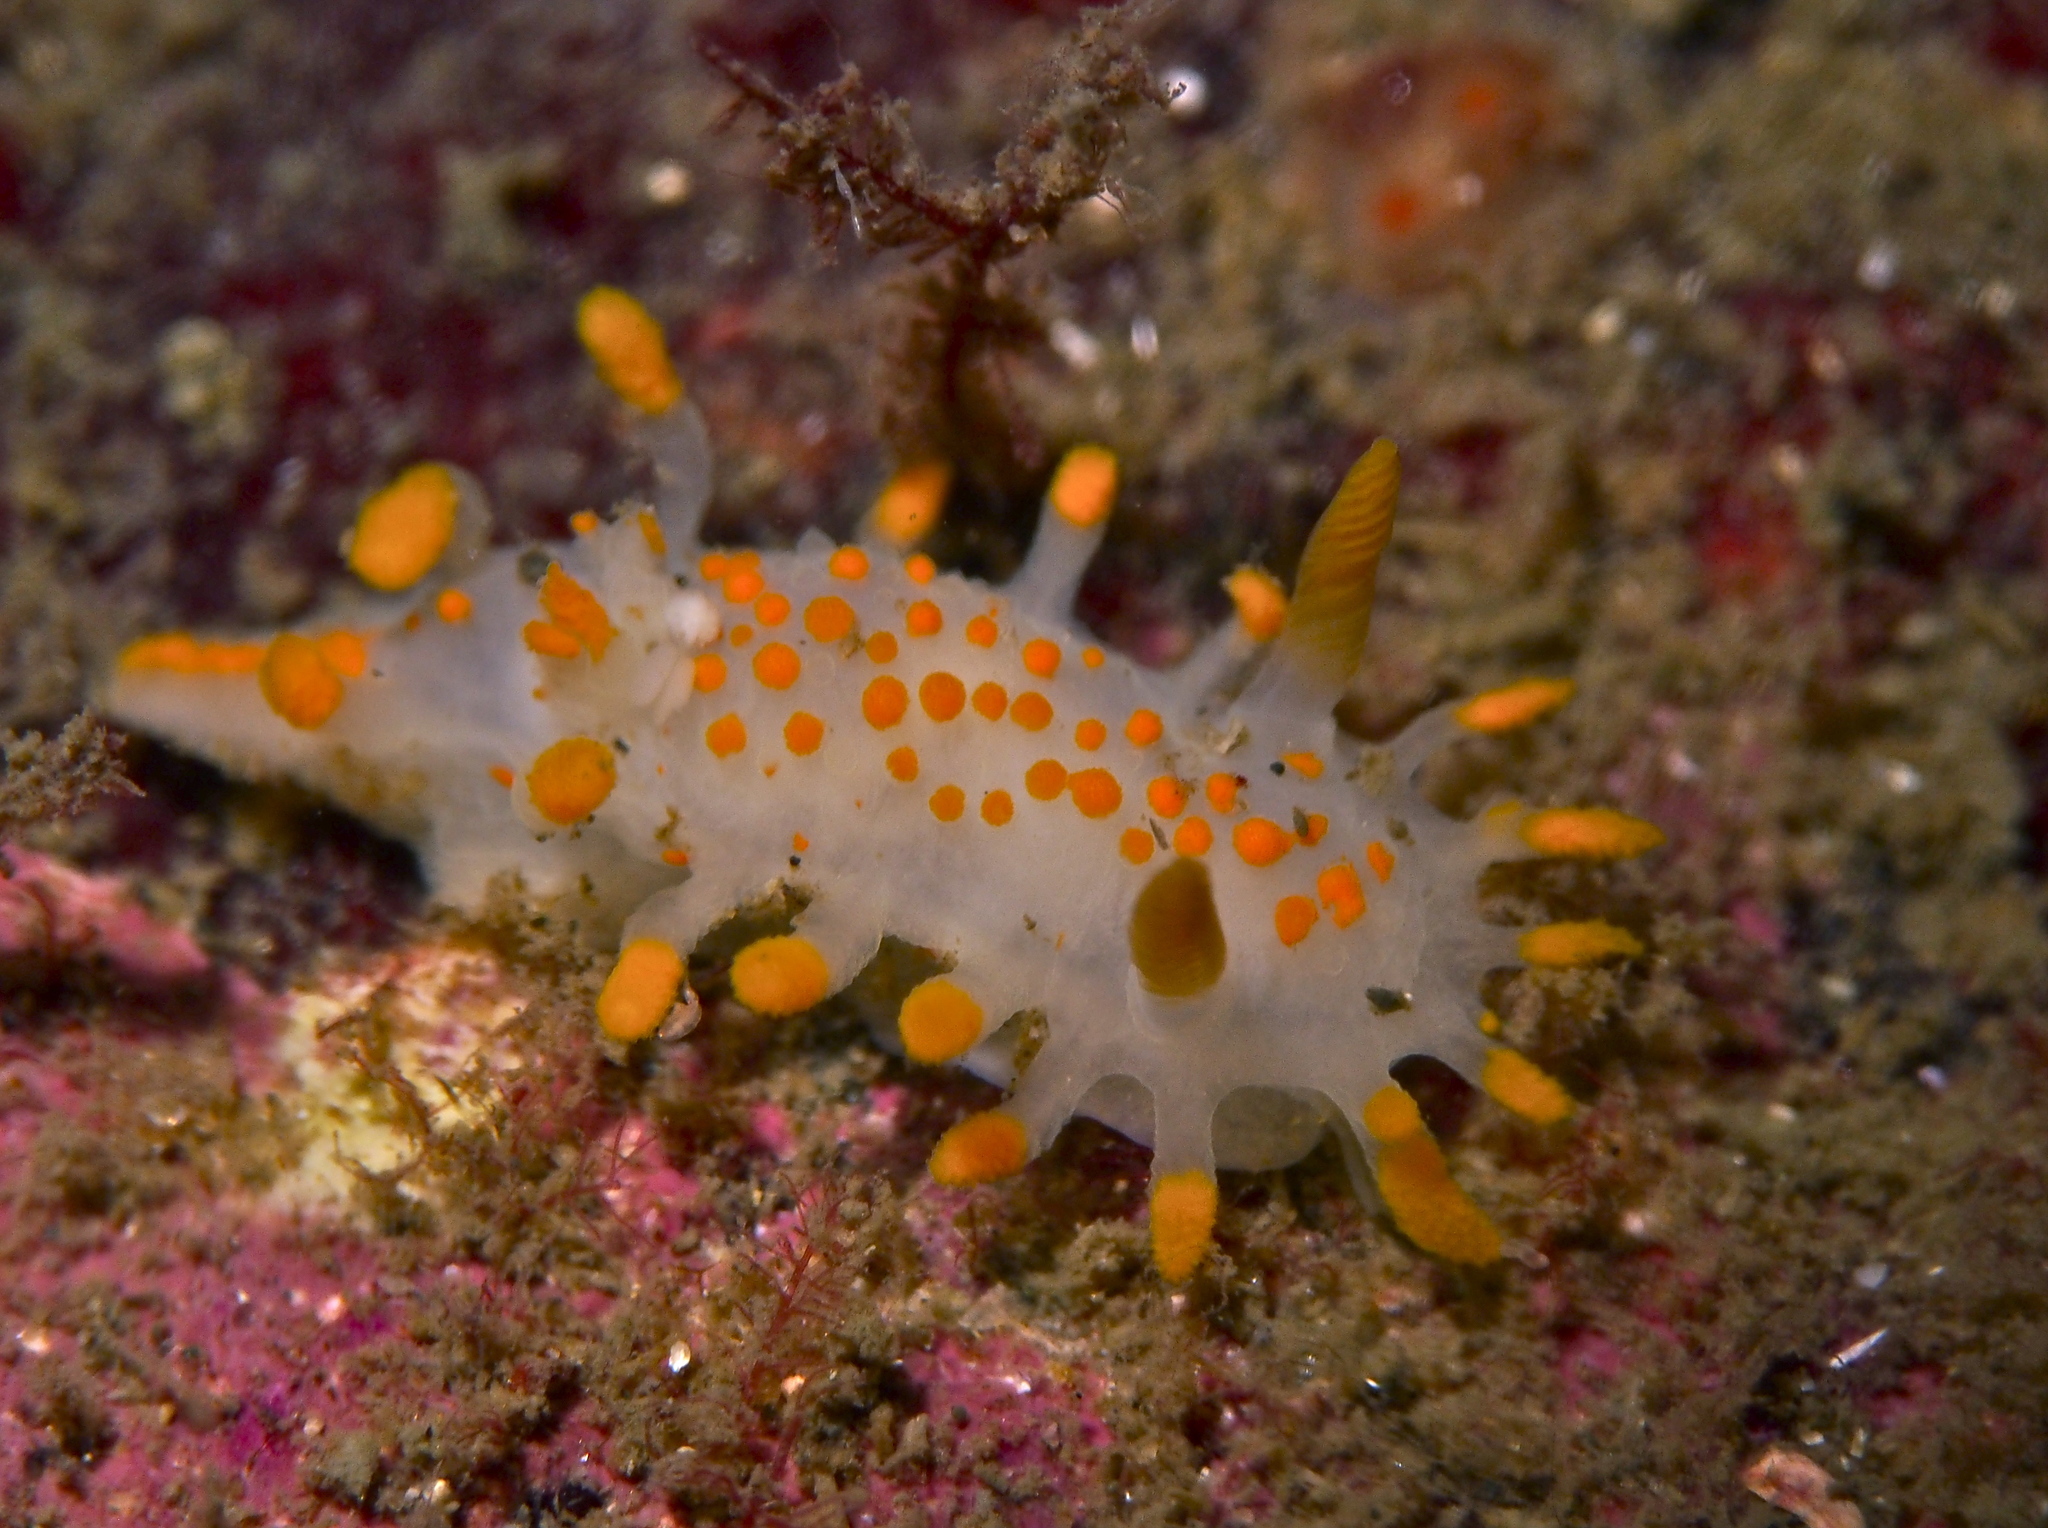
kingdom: Animalia
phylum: Mollusca
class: Gastropoda
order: Nudibranchia
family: Polyceridae
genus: Limacia
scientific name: Limacia clavigera
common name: Orange-clubbed sea slug
